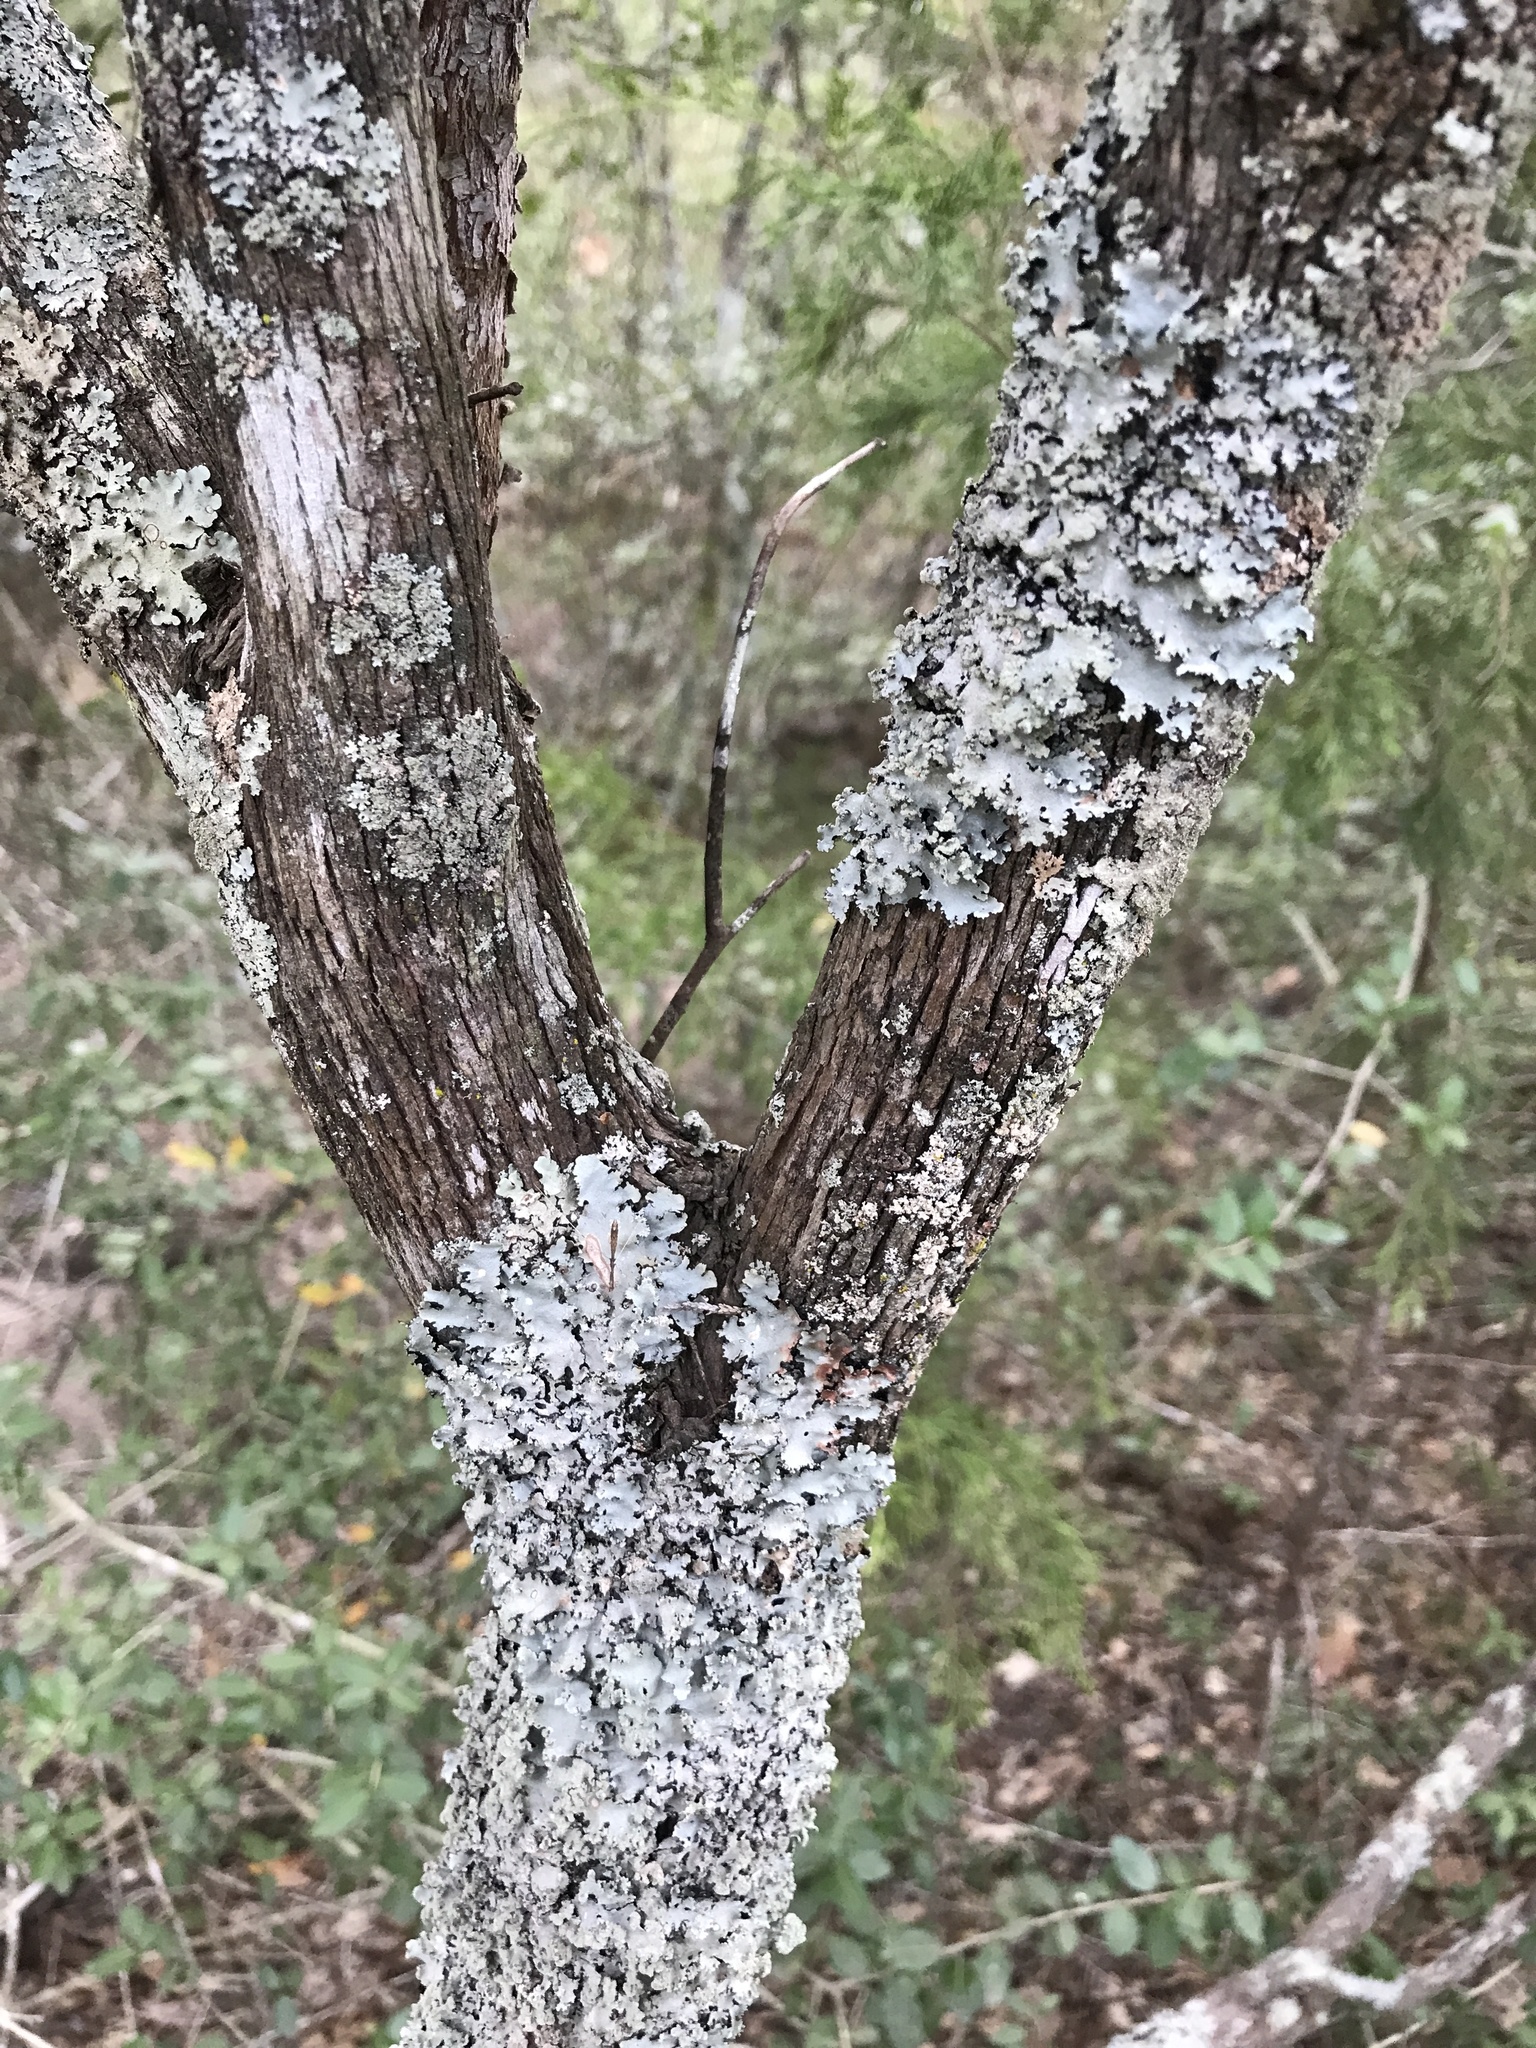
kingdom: Plantae
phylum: Tracheophyta
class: Magnoliopsida
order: Ericales
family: Ericaceae
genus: Vaccinium
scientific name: Vaccinium arboreum
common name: Farkleberry
